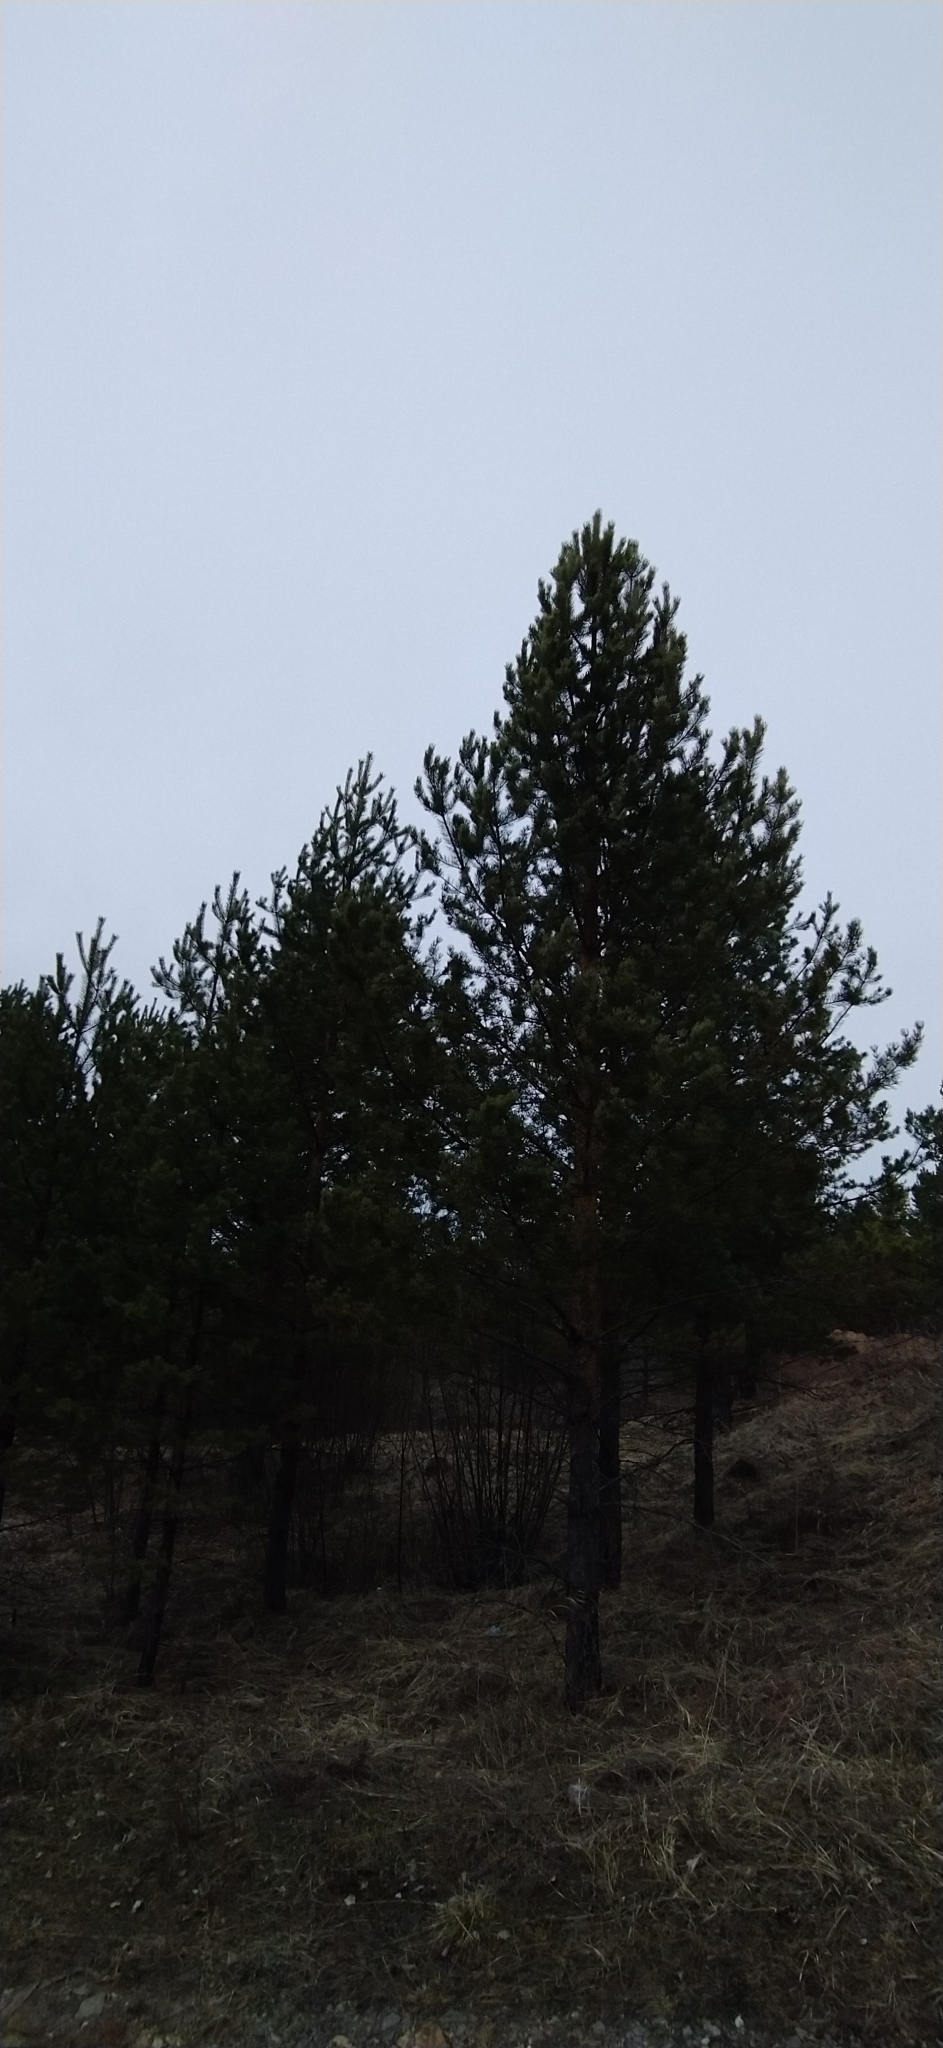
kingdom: Plantae
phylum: Tracheophyta
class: Pinopsida
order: Pinales
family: Pinaceae
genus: Pinus
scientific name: Pinus sylvestris
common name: Scots pine
